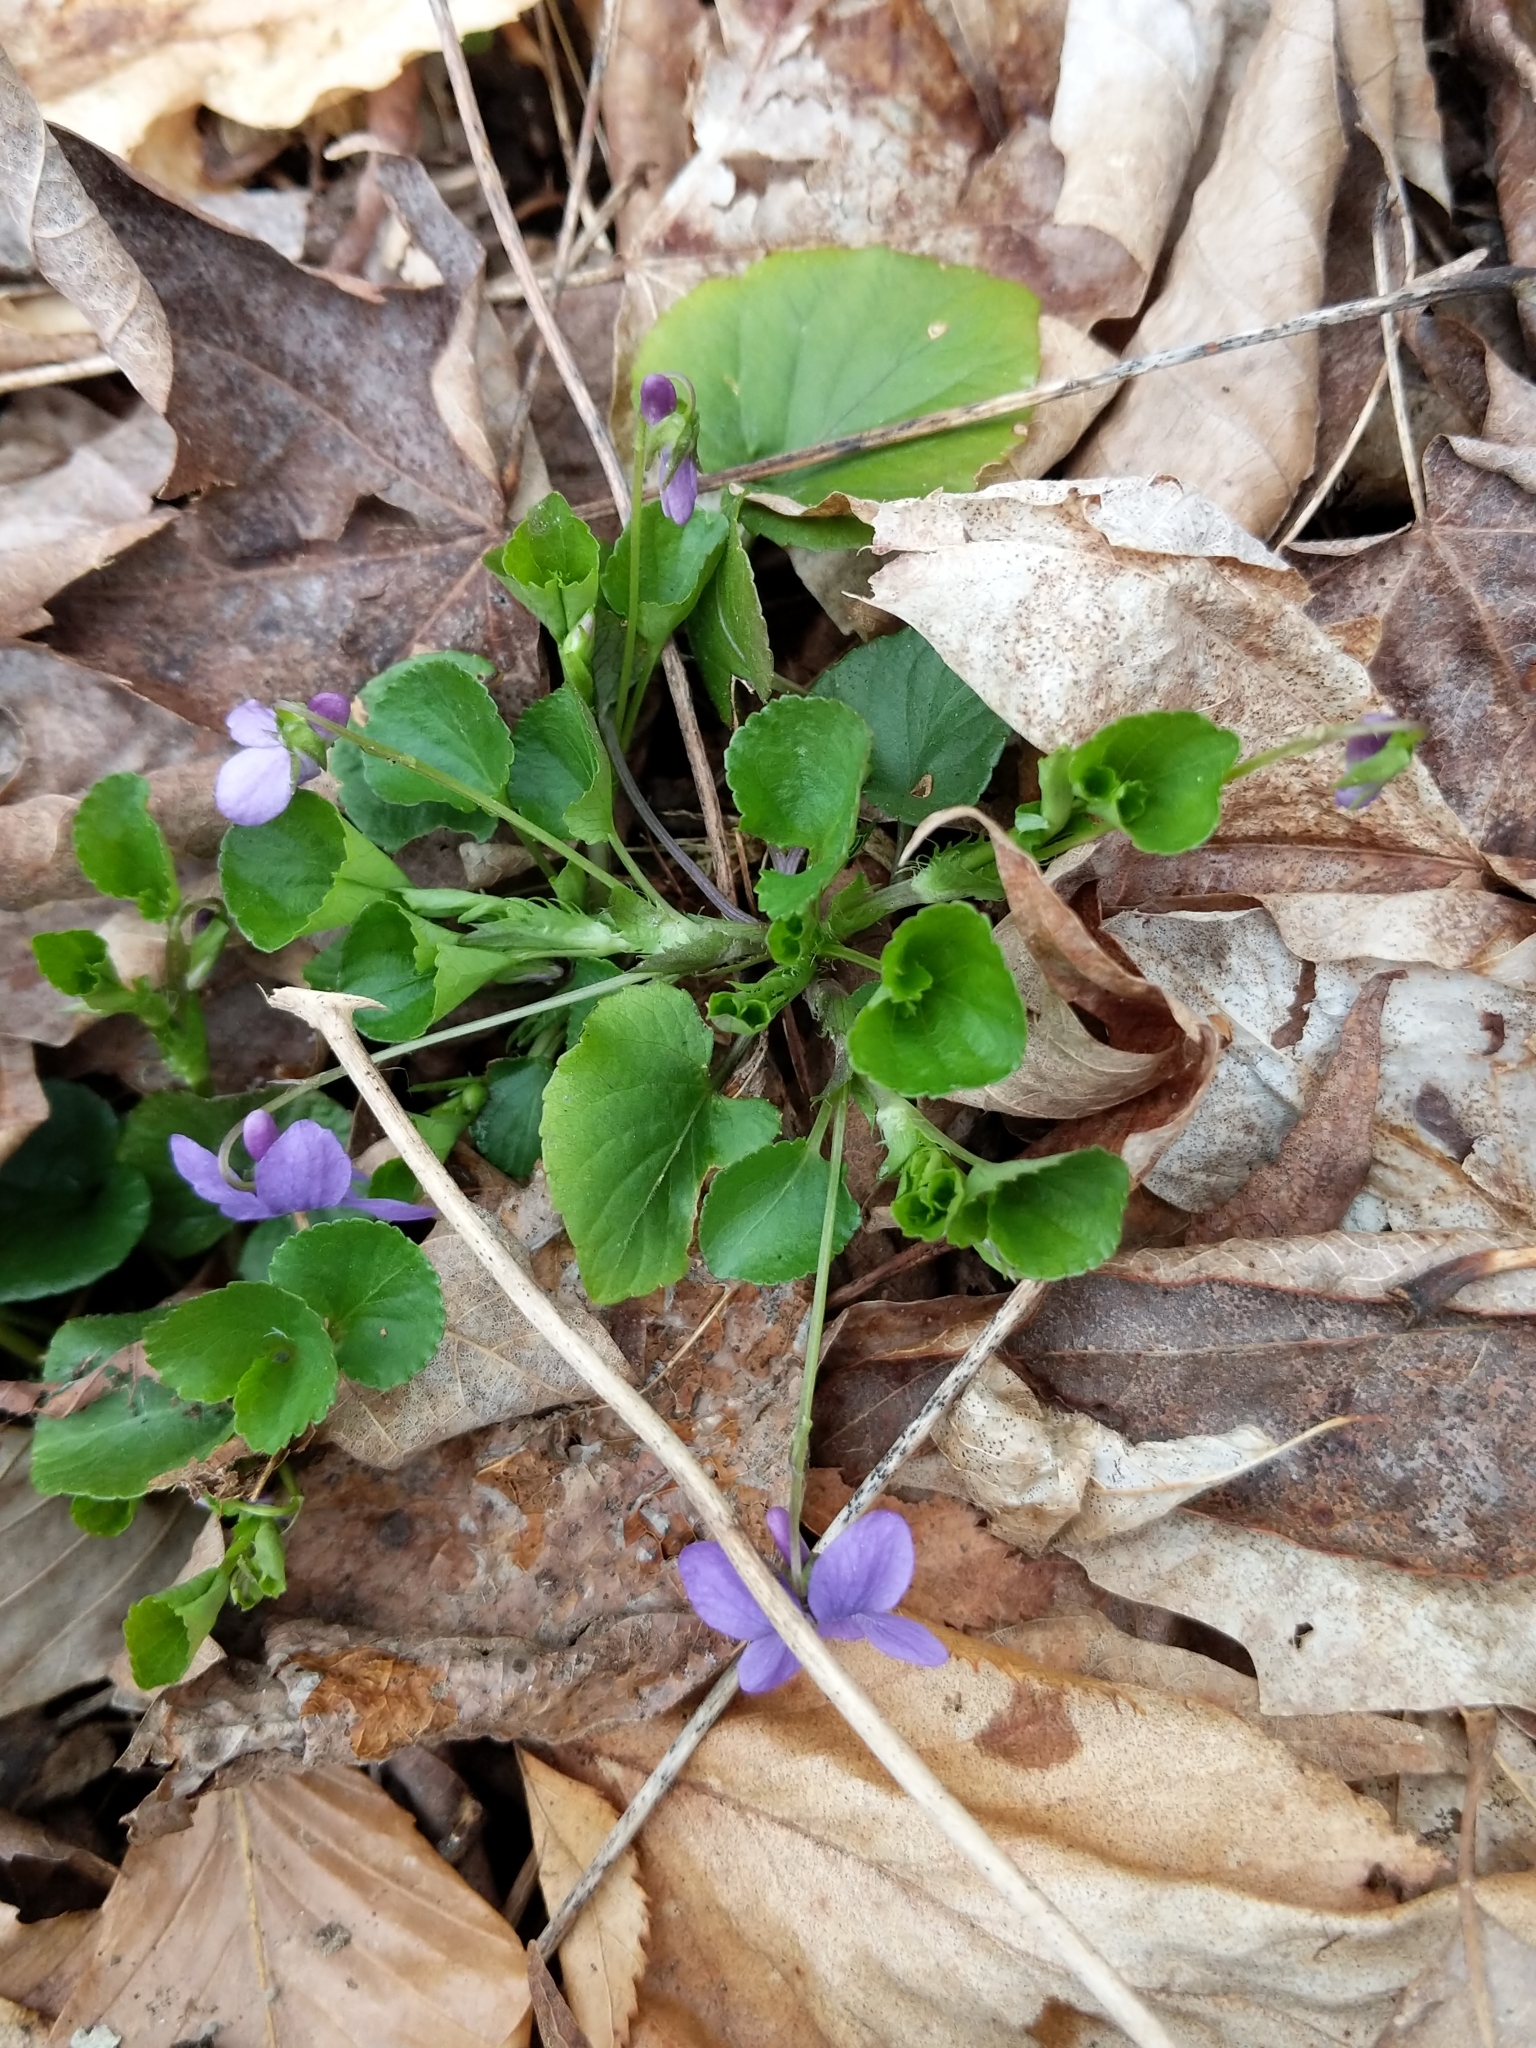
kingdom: Plantae
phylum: Tracheophyta
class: Magnoliopsida
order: Malpighiales
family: Violaceae
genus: Viola
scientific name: Viola labradorica
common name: Labrador violet
